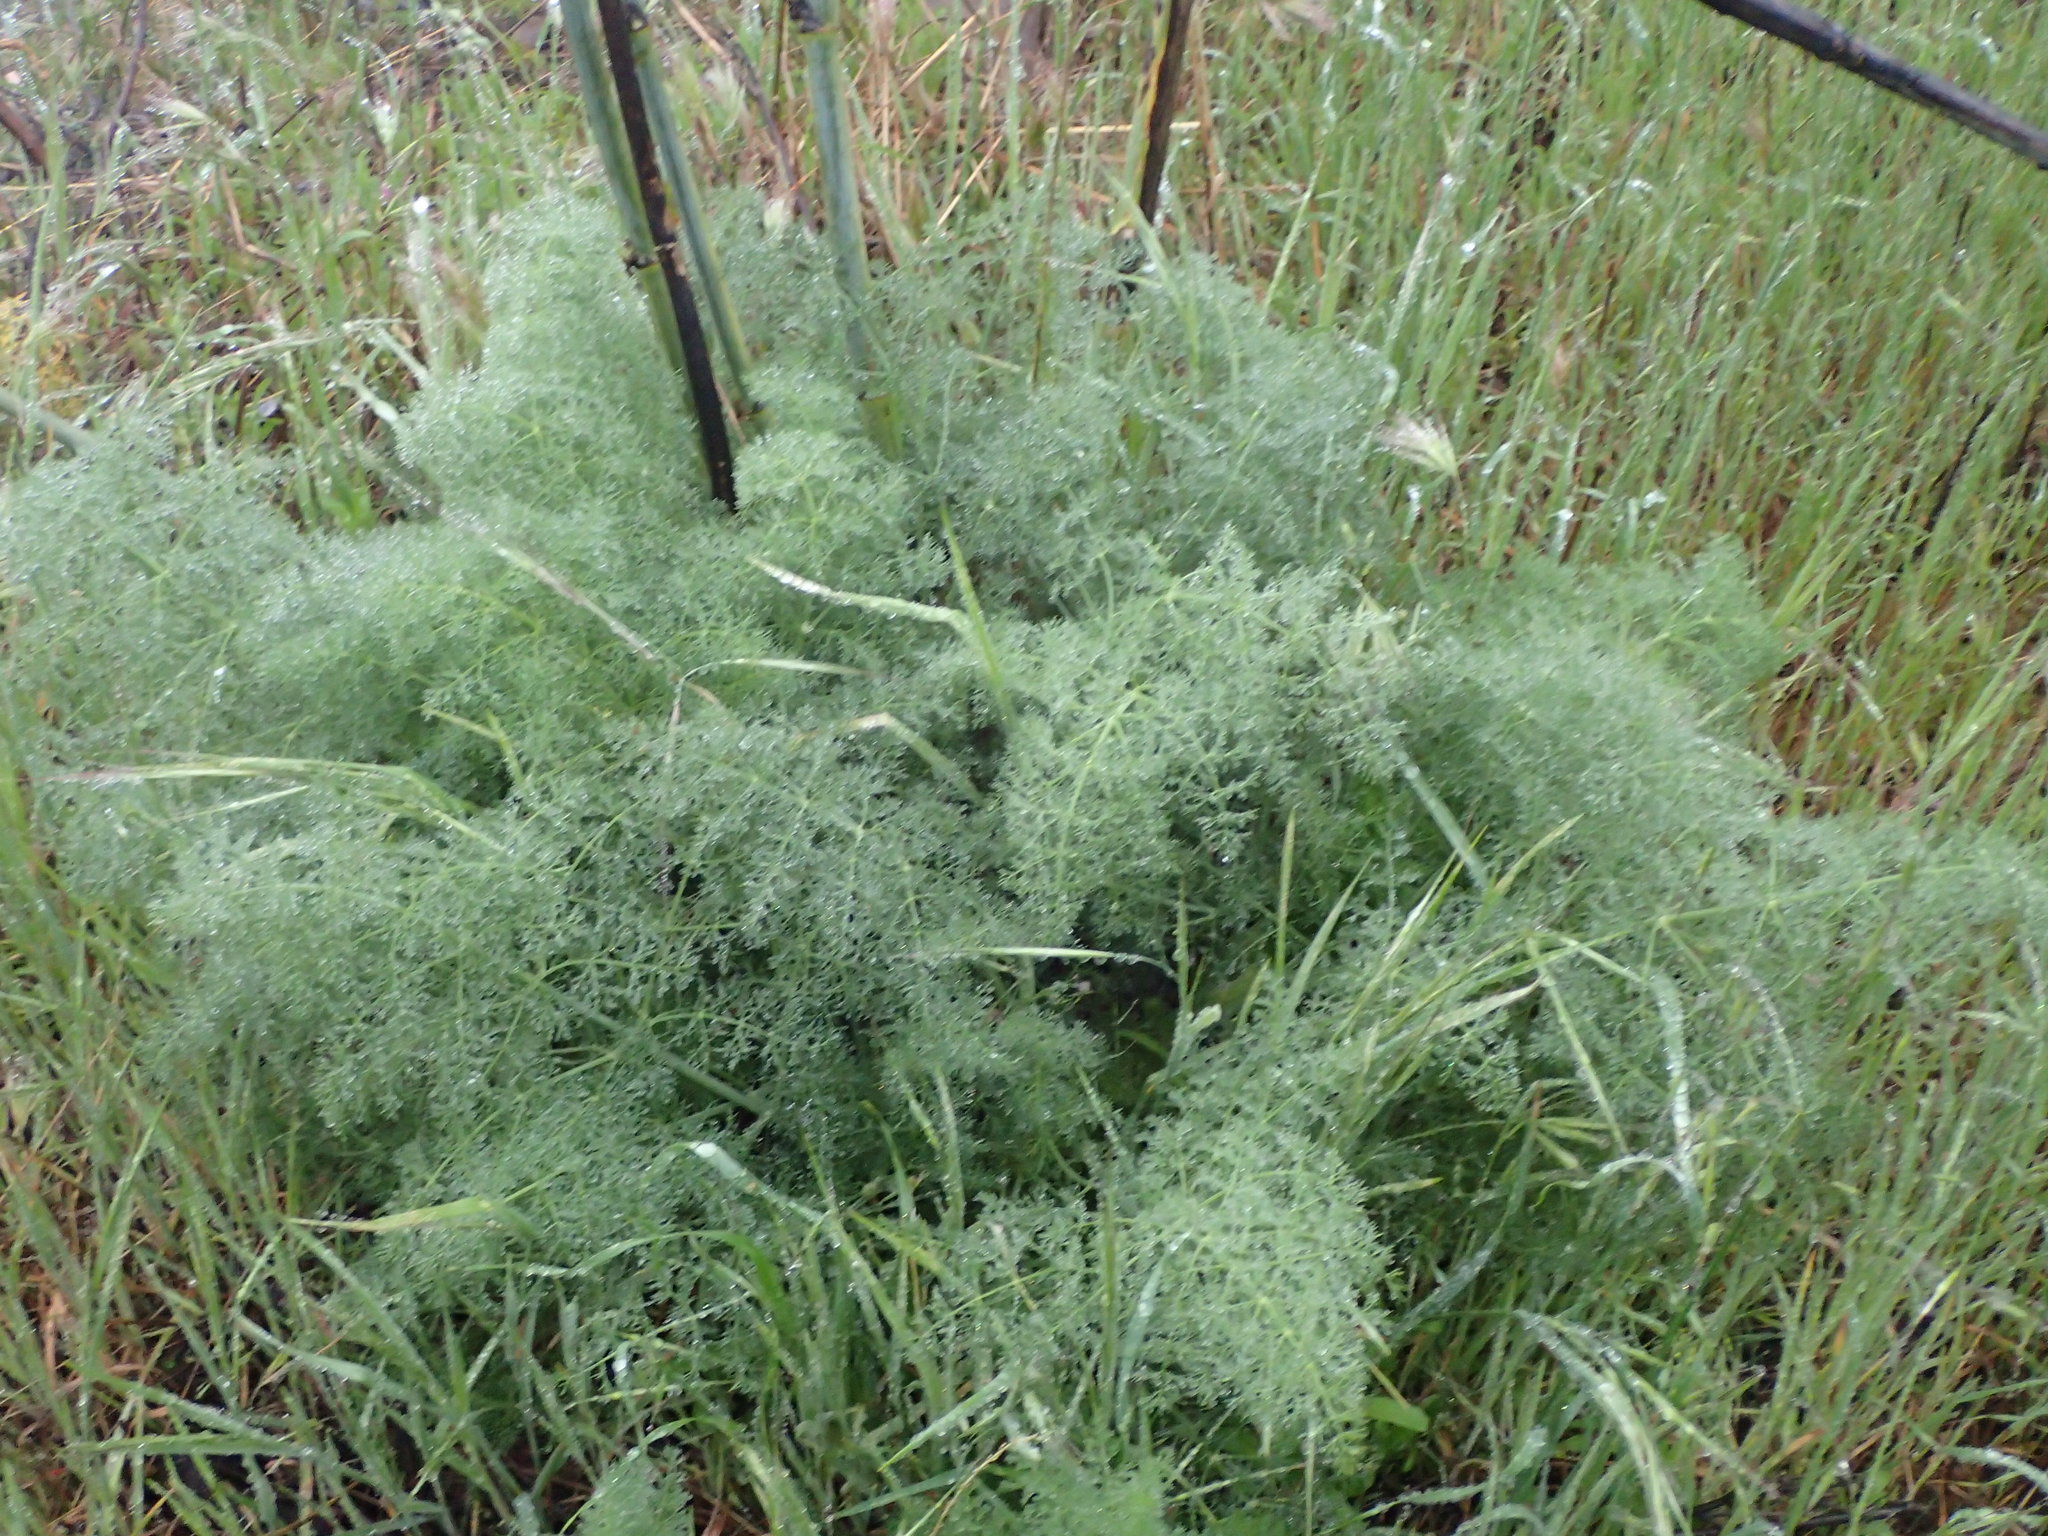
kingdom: Plantae
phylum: Tracheophyta
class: Magnoliopsida
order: Apiales
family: Apiaceae
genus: Foeniculum
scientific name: Foeniculum vulgare
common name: Fennel
